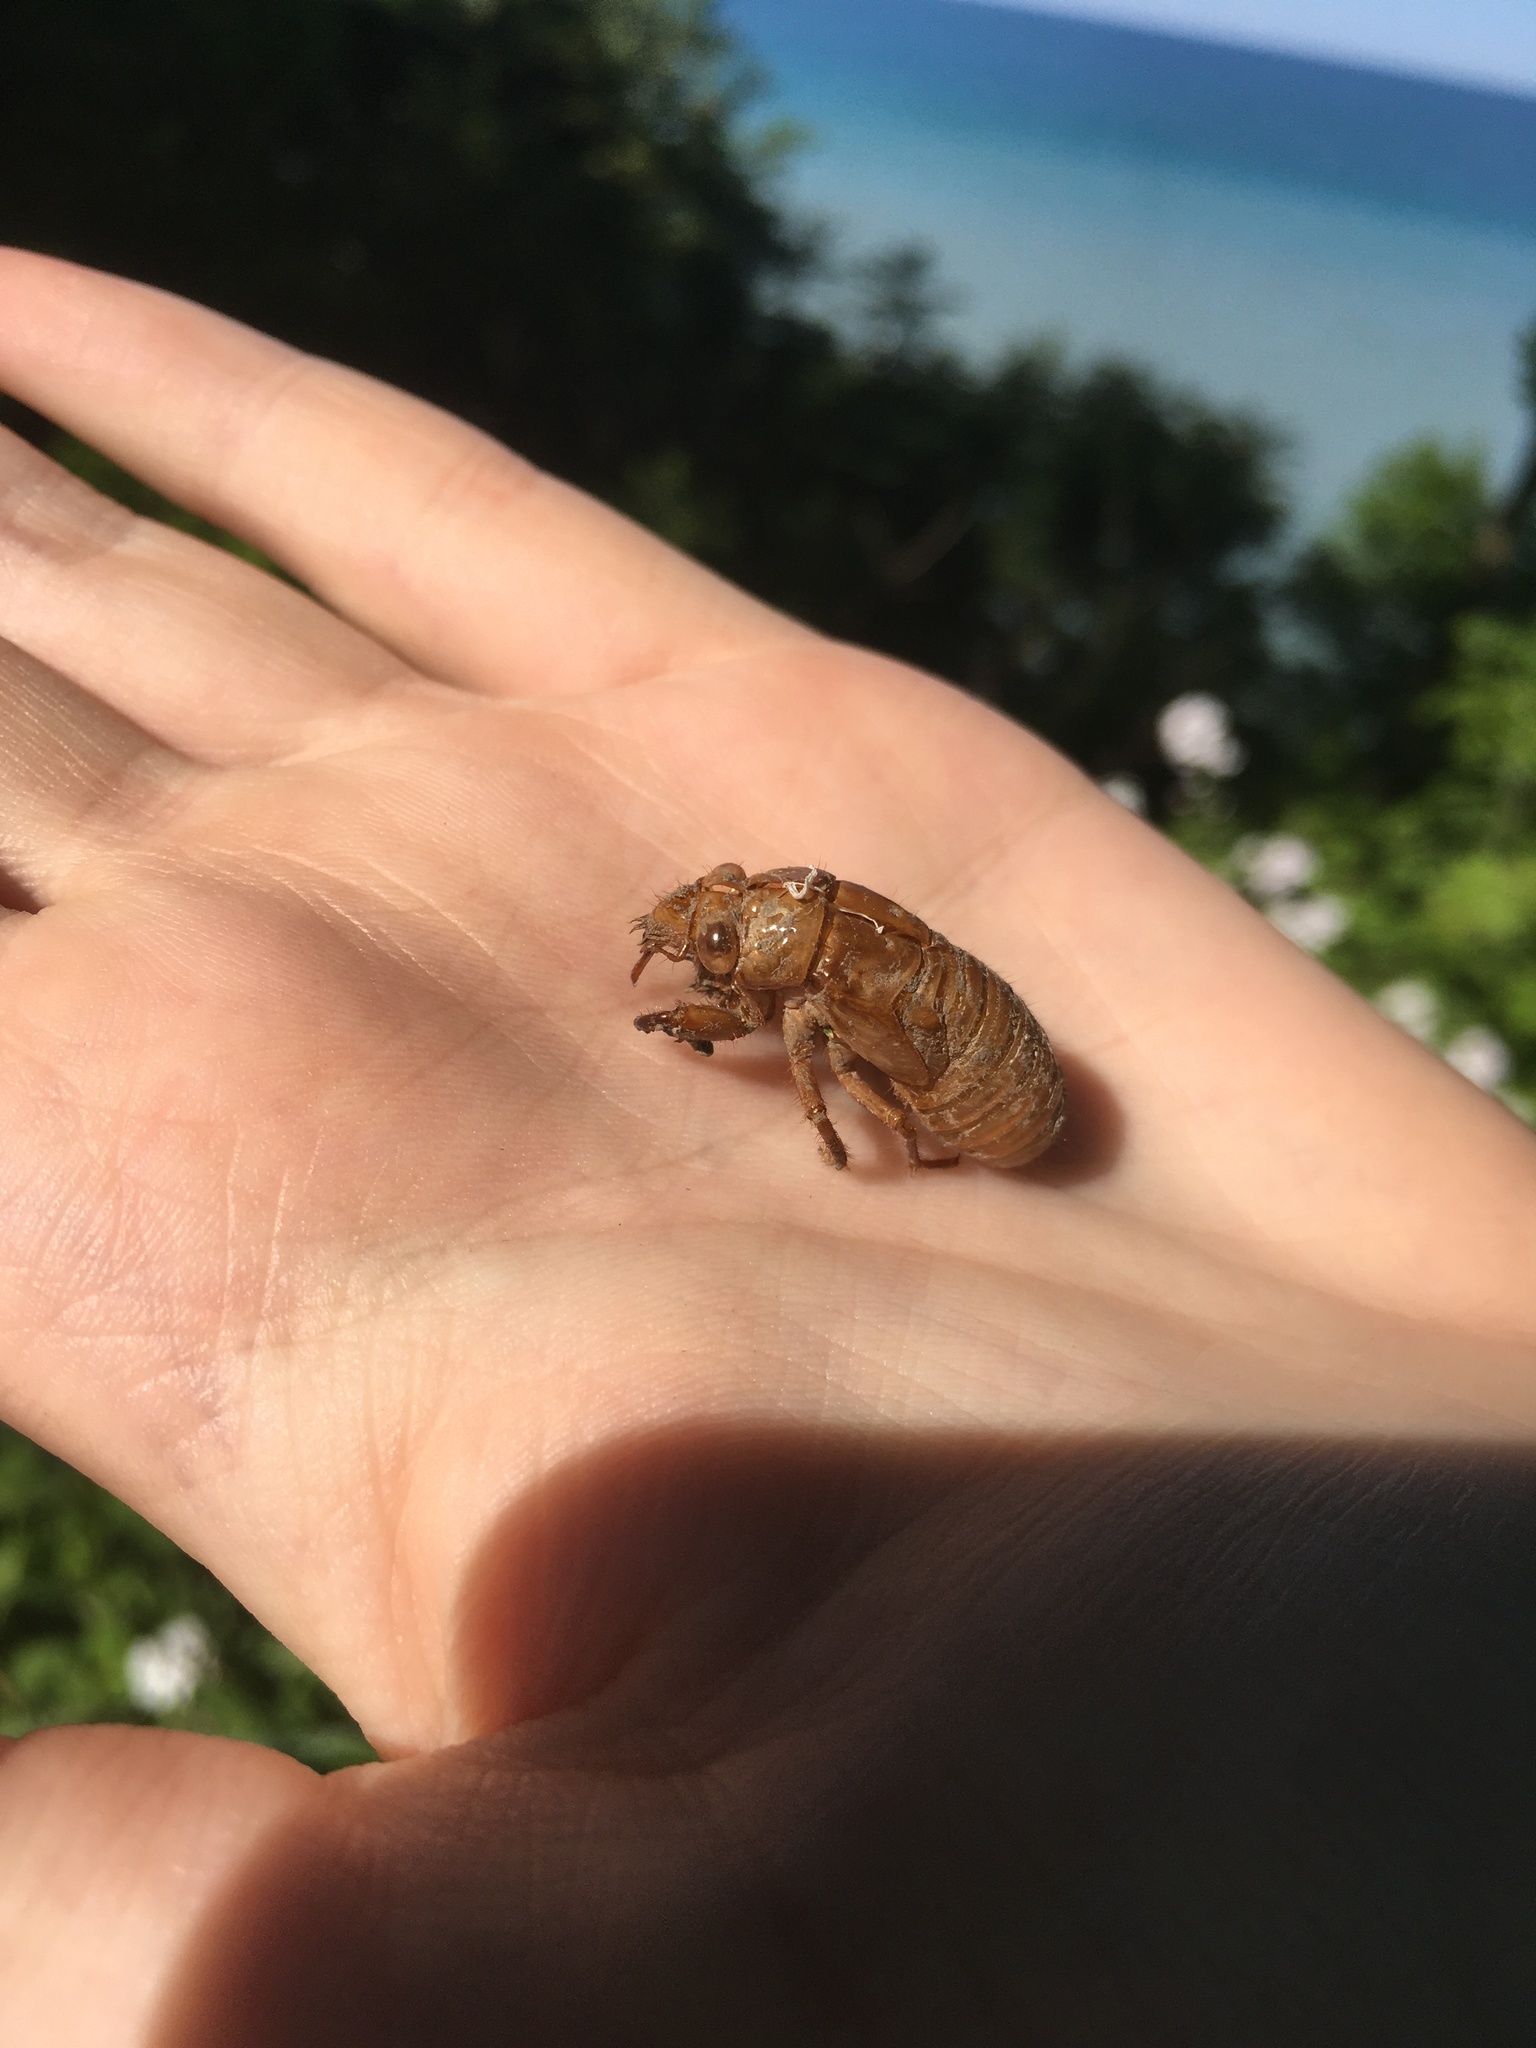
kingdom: Animalia
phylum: Arthropoda
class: Insecta
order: Hemiptera
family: Cicadidae
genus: Magicicada
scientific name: Magicicada
